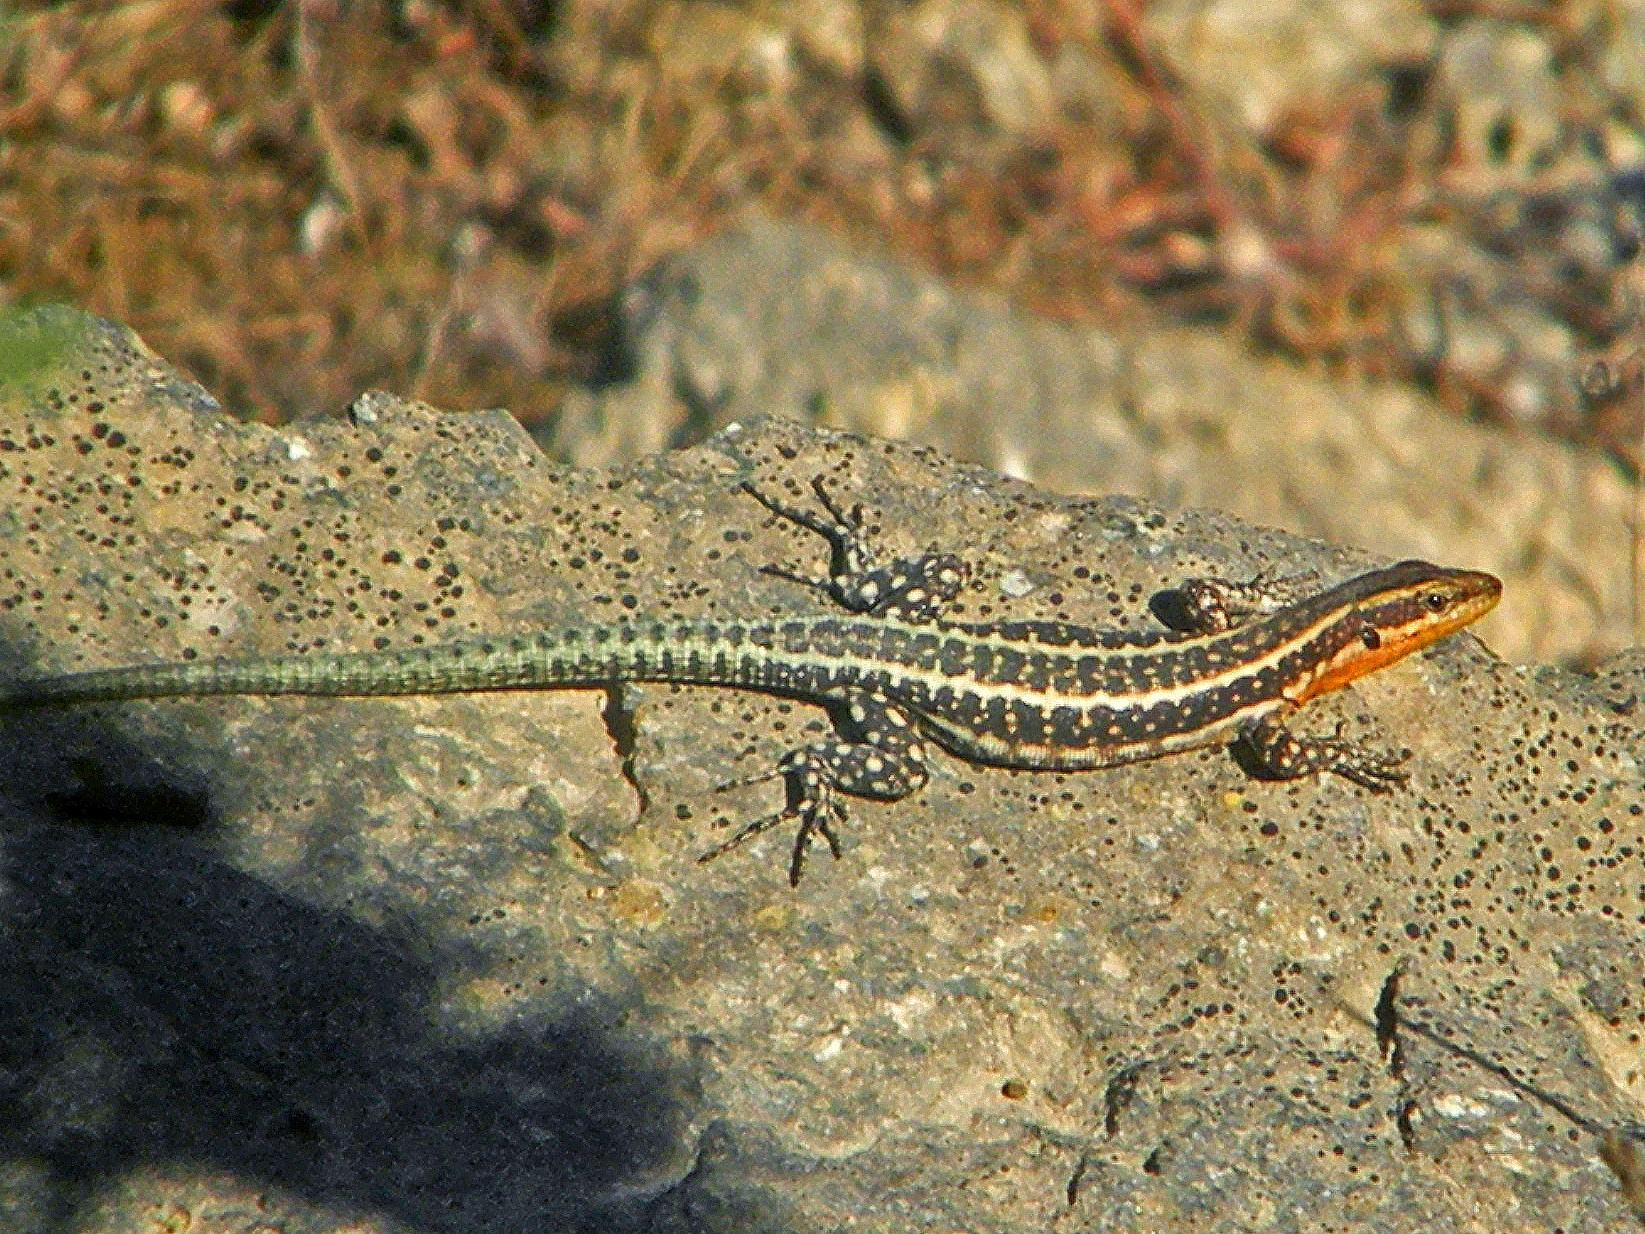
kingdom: Animalia
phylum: Chordata
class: Squamata
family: Lacertidae
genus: Anatololacerta
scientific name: Anatololacerta anatolica
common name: Anatolian rock lizard
